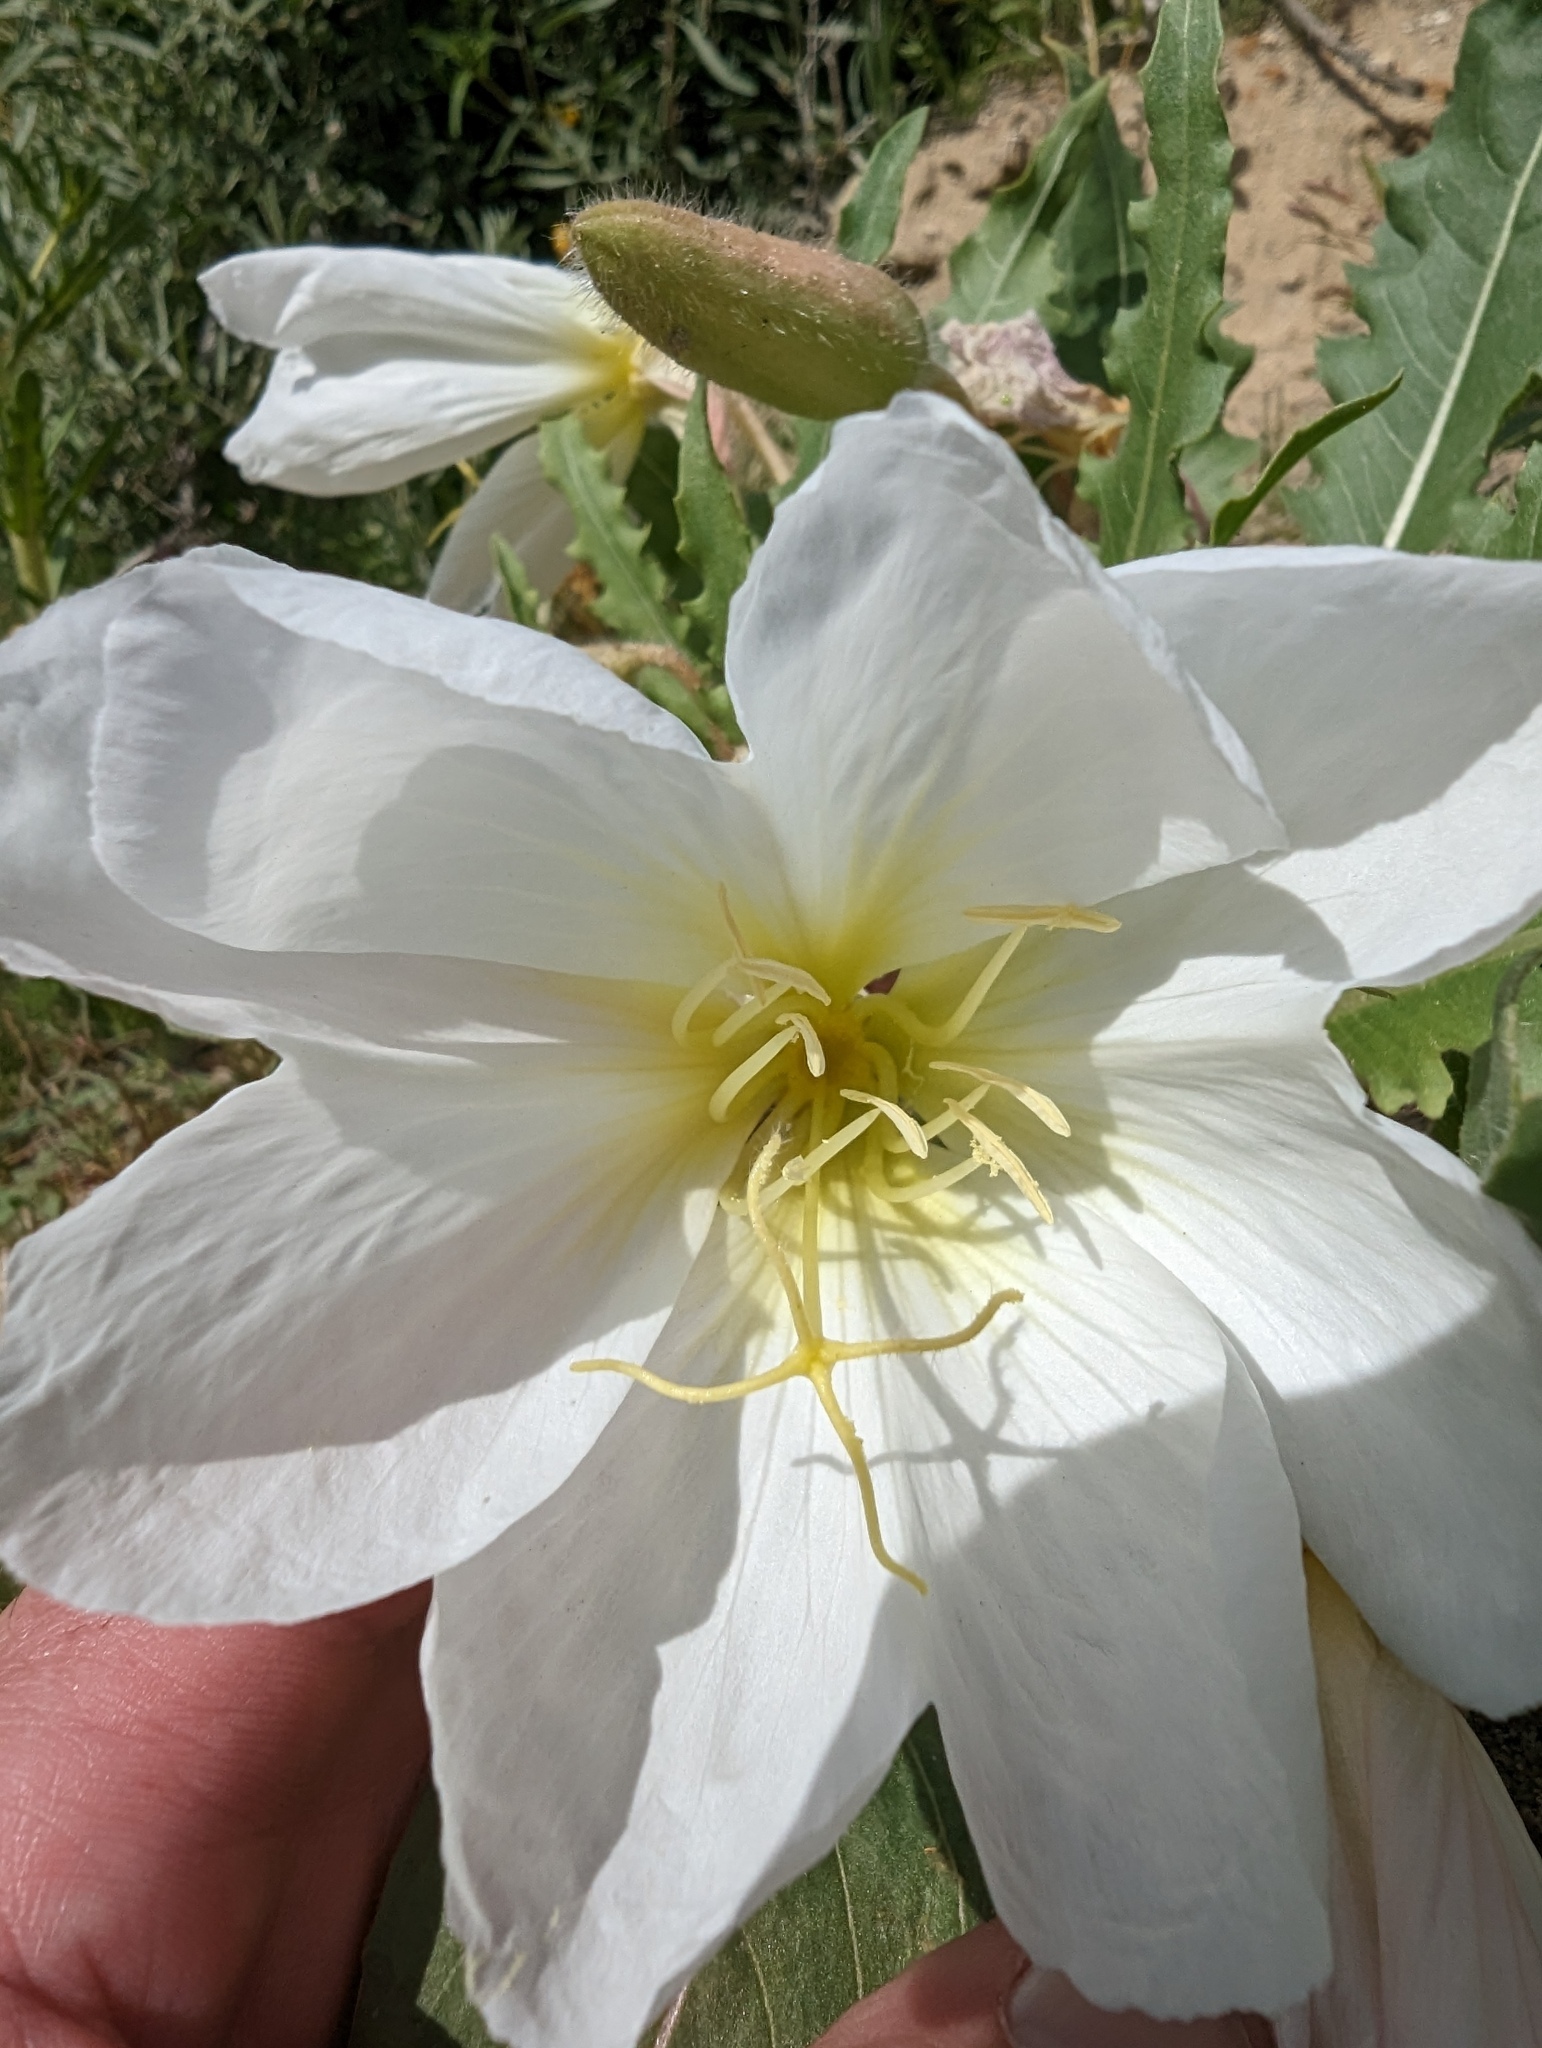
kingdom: Plantae
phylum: Tracheophyta
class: Magnoliopsida
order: Myrtales
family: Onagraceae
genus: Oenothera
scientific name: Oenothera deltoides
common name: Basket evening-primrose
